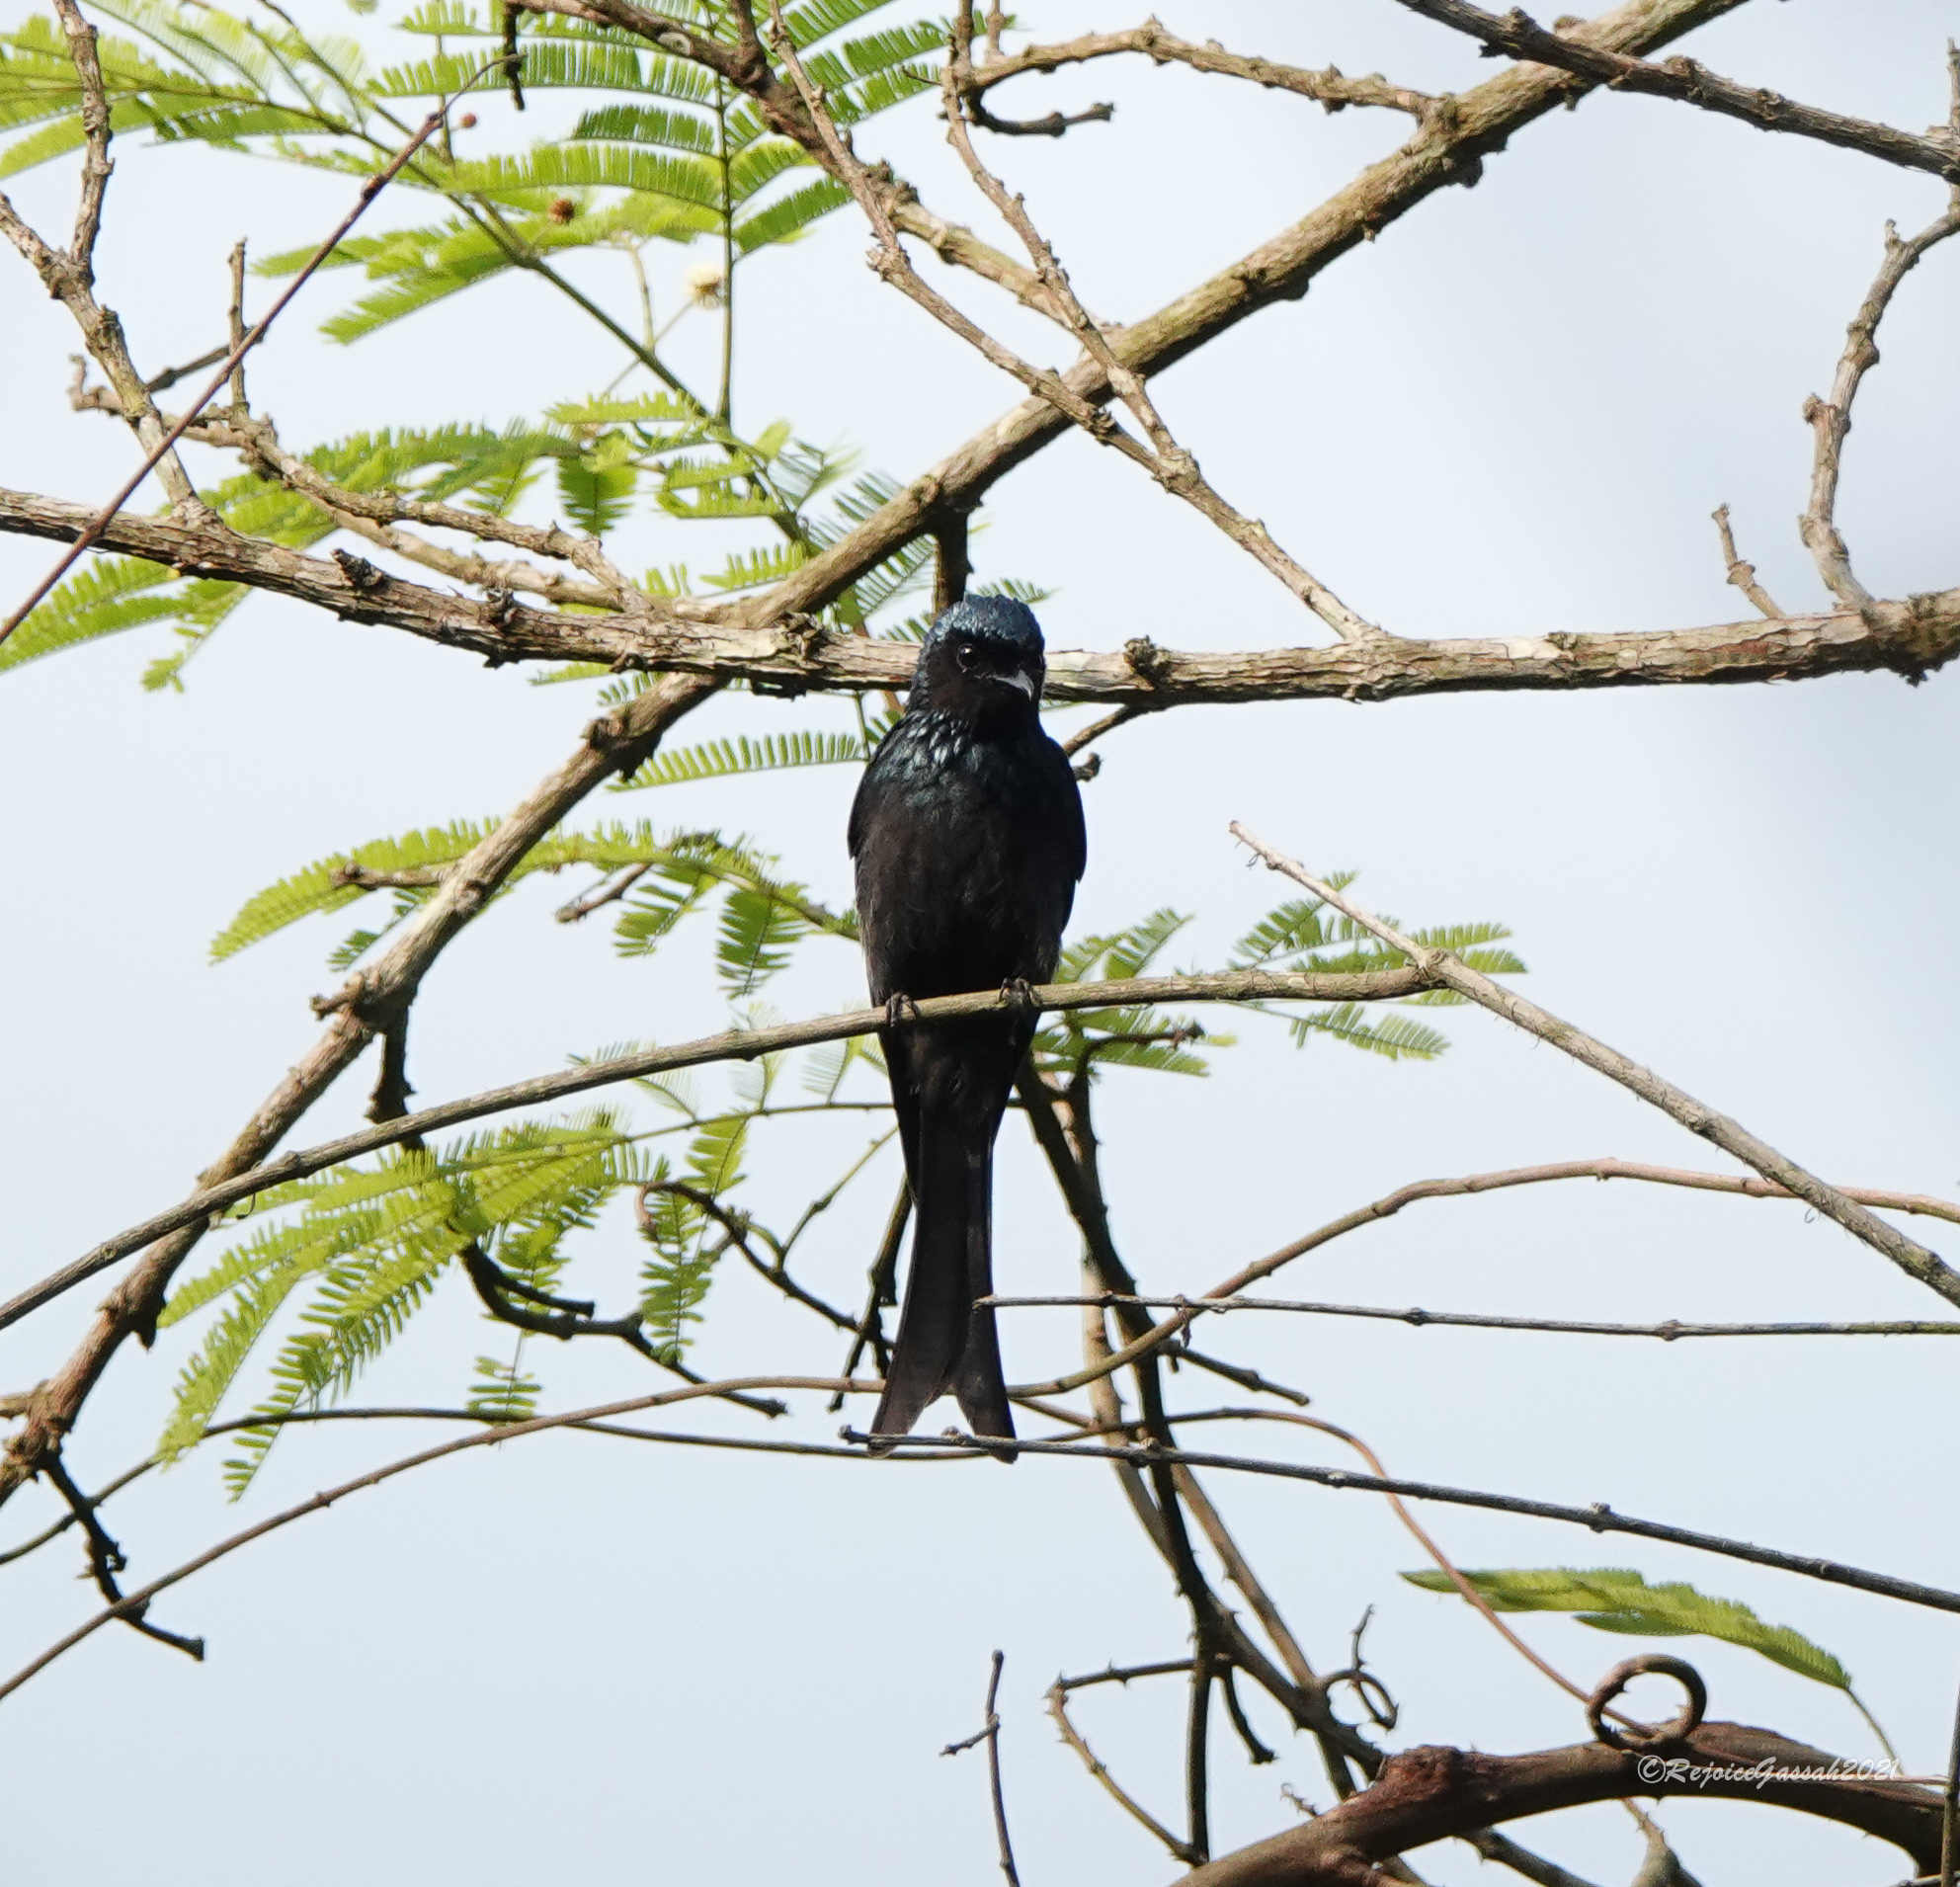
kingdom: Animalia
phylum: Chordata
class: Aves
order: Passeriformes
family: Dicruridae
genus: Dicrurus
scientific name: Dicrurus aeneus
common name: Bronzed drongo
